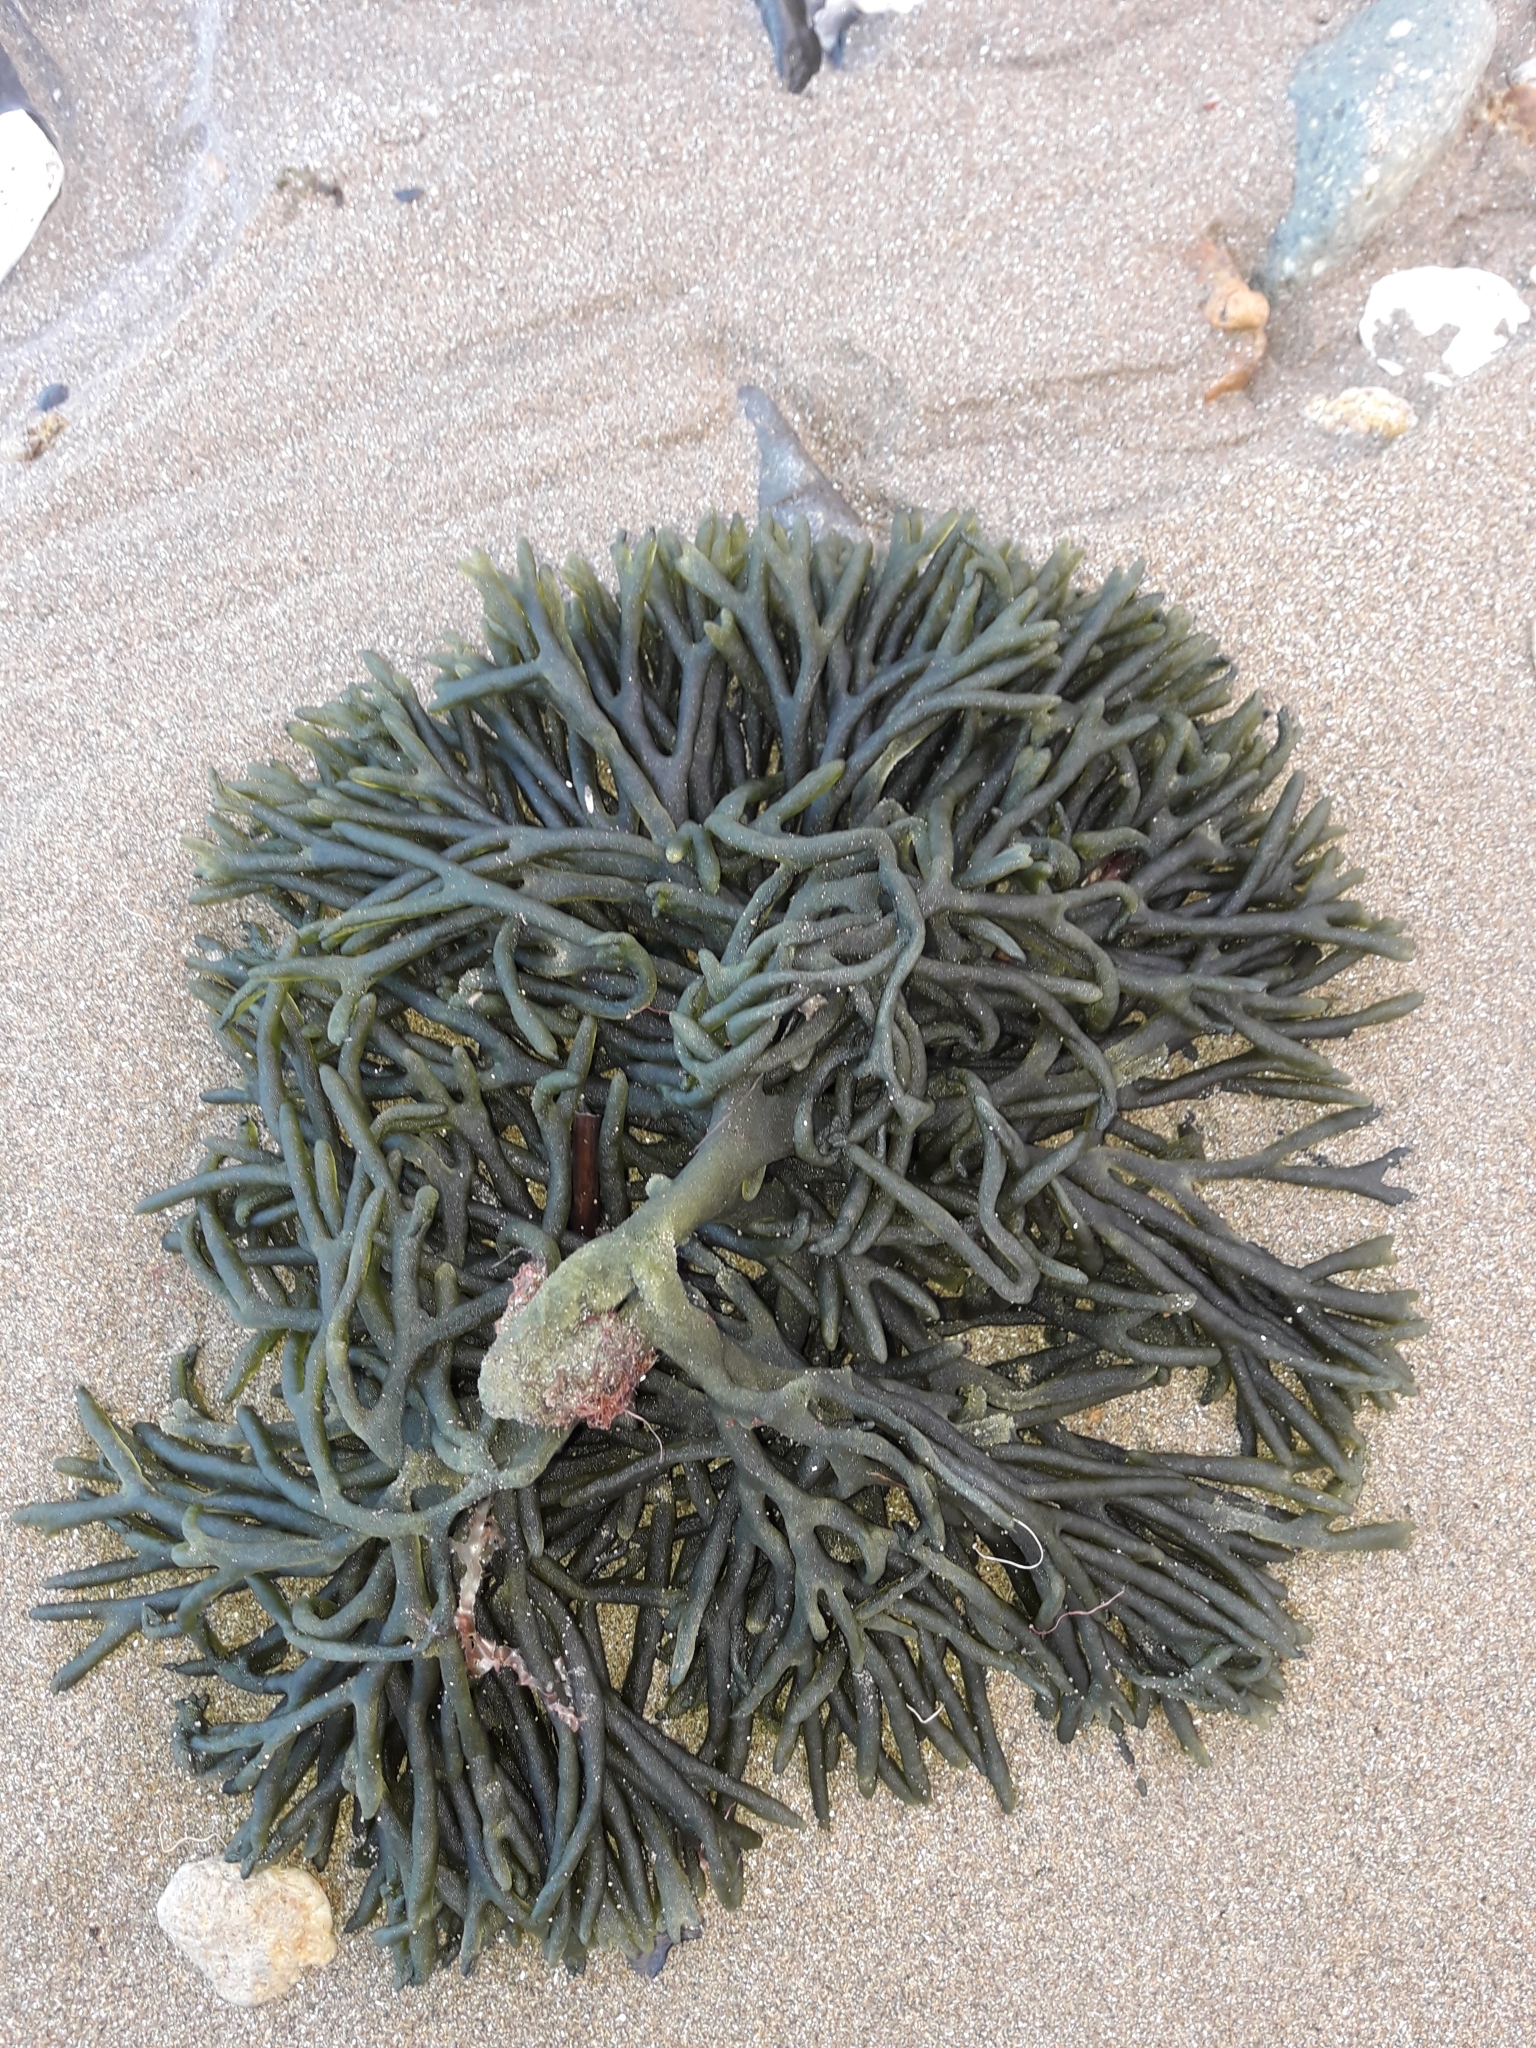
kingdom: Plantae
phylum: Chlorophyta
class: Ulvophyceae
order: Bryopsidales
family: Codiaceae
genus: Codium
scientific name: Codium fragile
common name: Dead man's fingers
